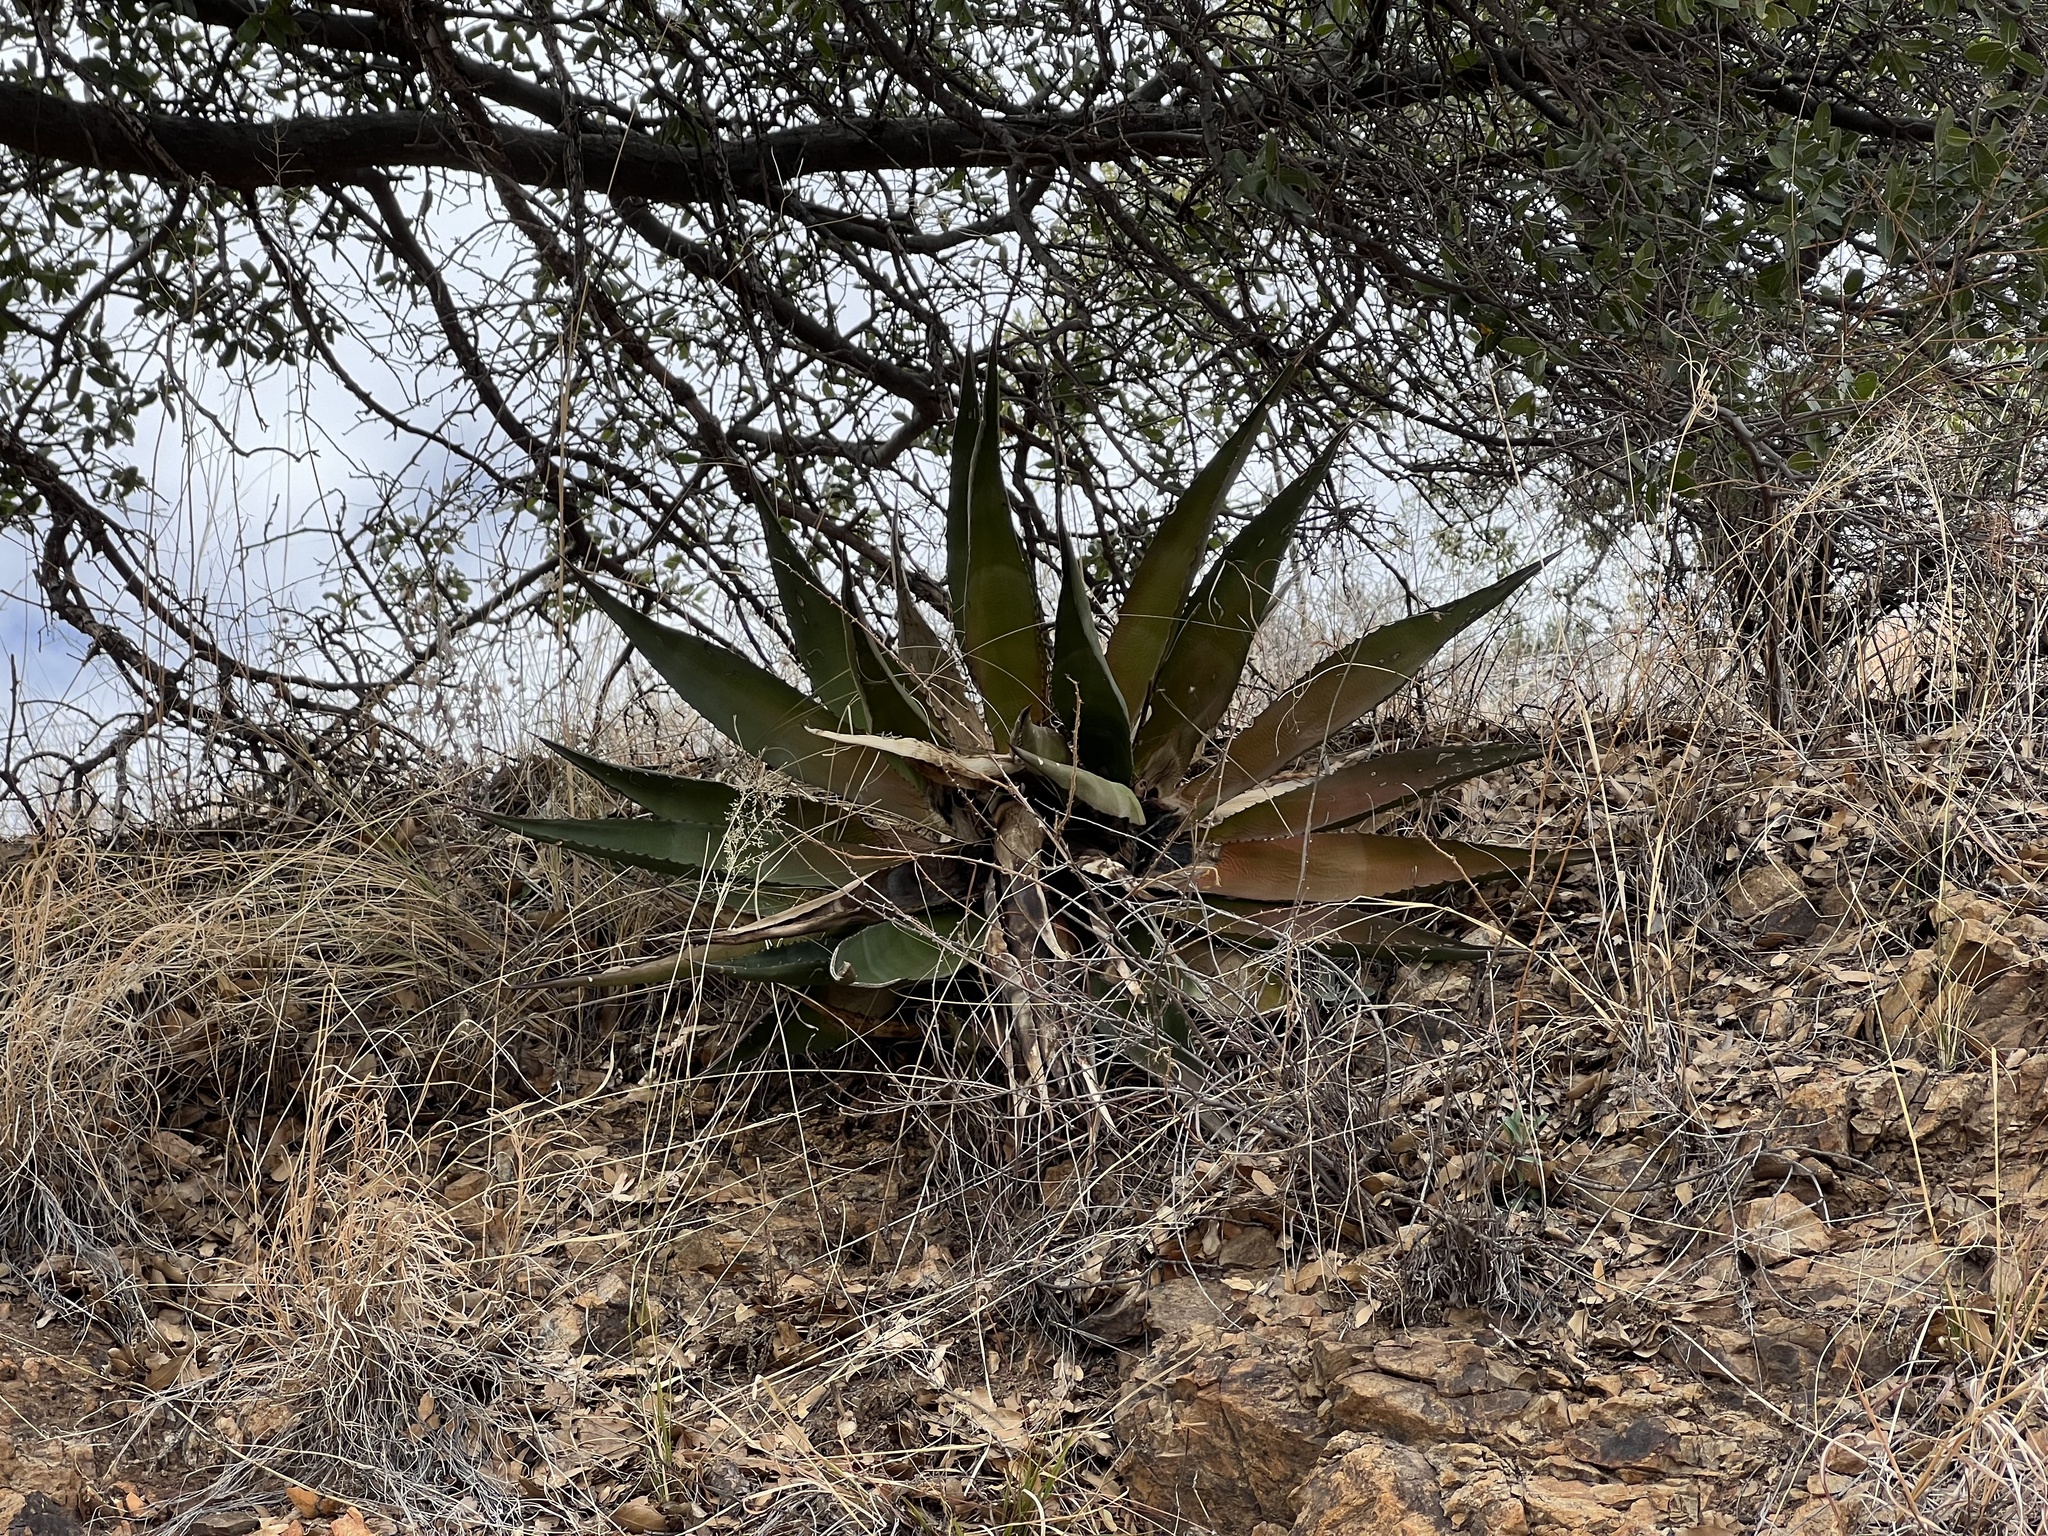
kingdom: Plantae
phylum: Tracheophyta
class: Liliopsida
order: Asparagales
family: Asparagaceae
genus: Agave
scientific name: Agave palmeri
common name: Palmer agave
